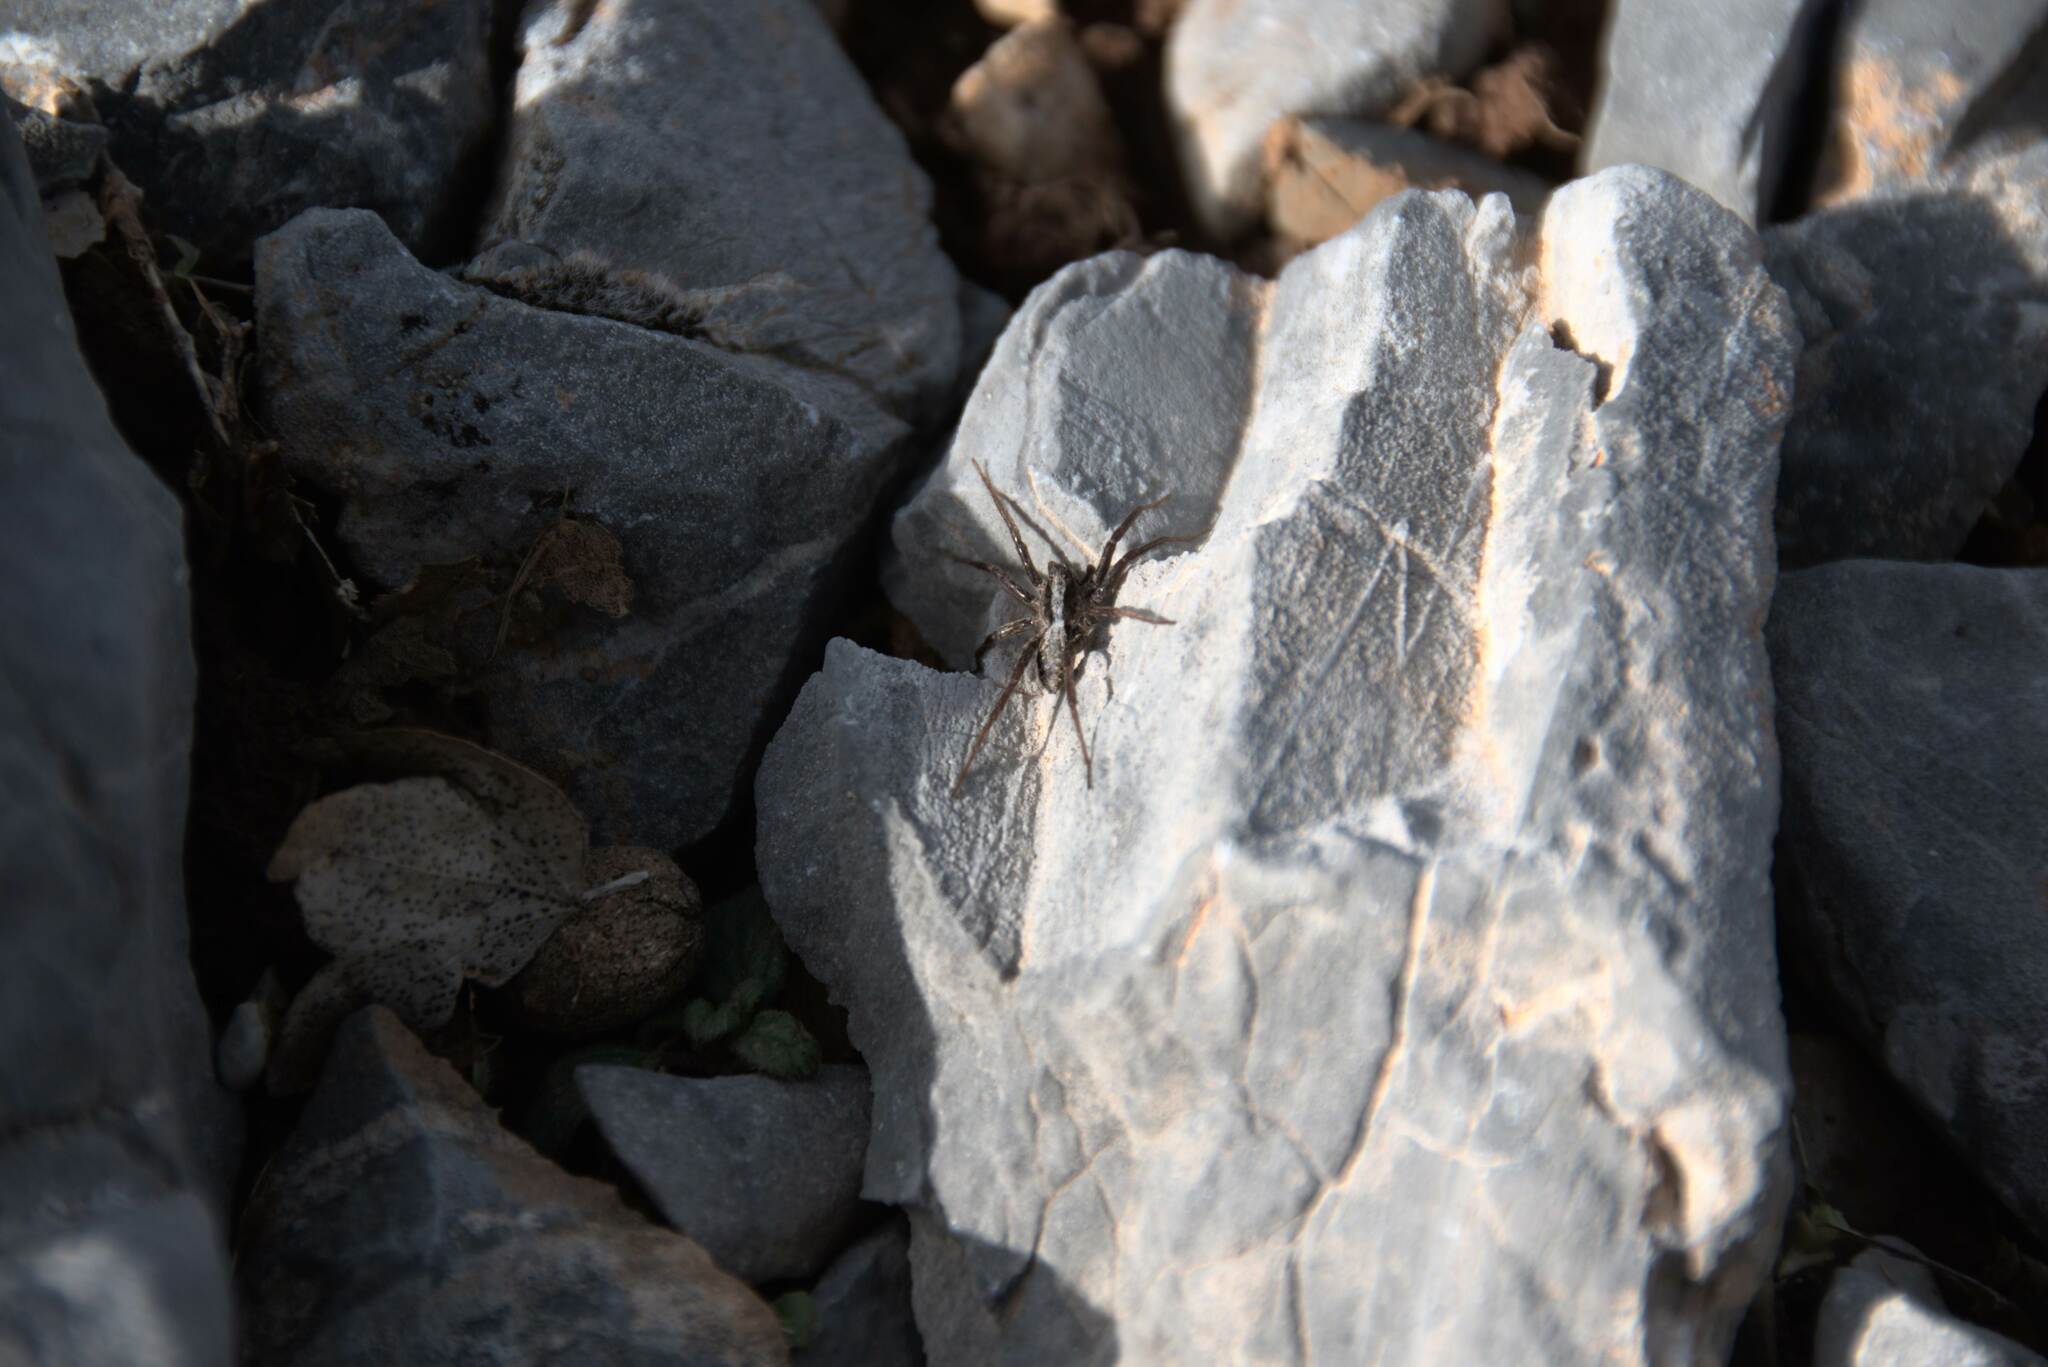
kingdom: Animalia
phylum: Arthropoda
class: Arachnida
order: Araneae
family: Lycosidae
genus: Alopecosa
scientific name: Alopecosa
